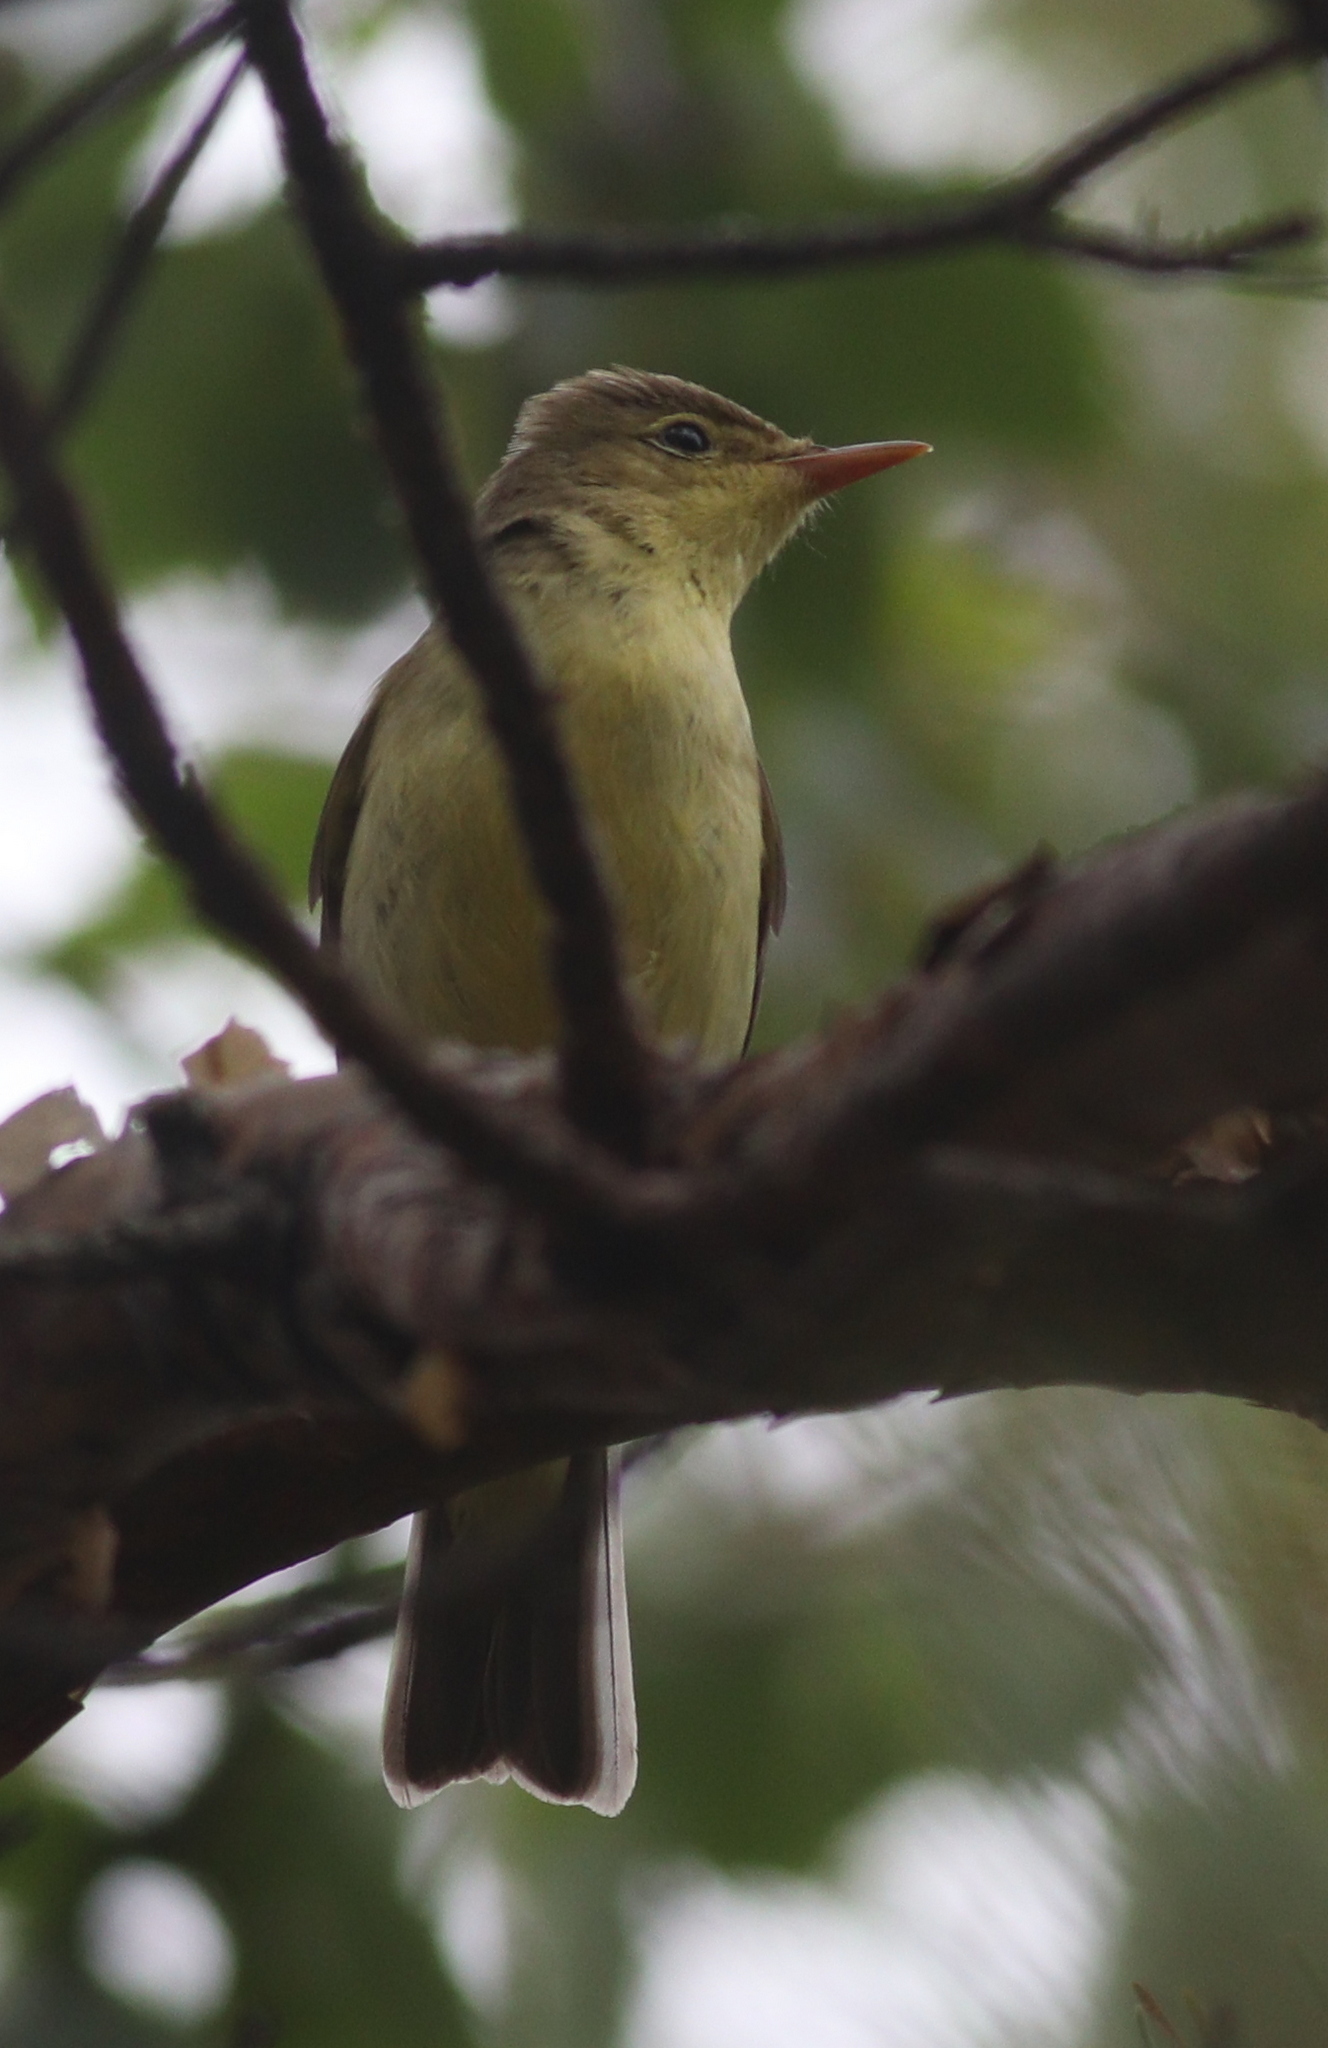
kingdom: Animalia
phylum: Chordata
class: Aves
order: Passeriformes
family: Acrocephalidae
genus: Hippolais
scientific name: Hippolais icterina
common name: Icterine warbler
